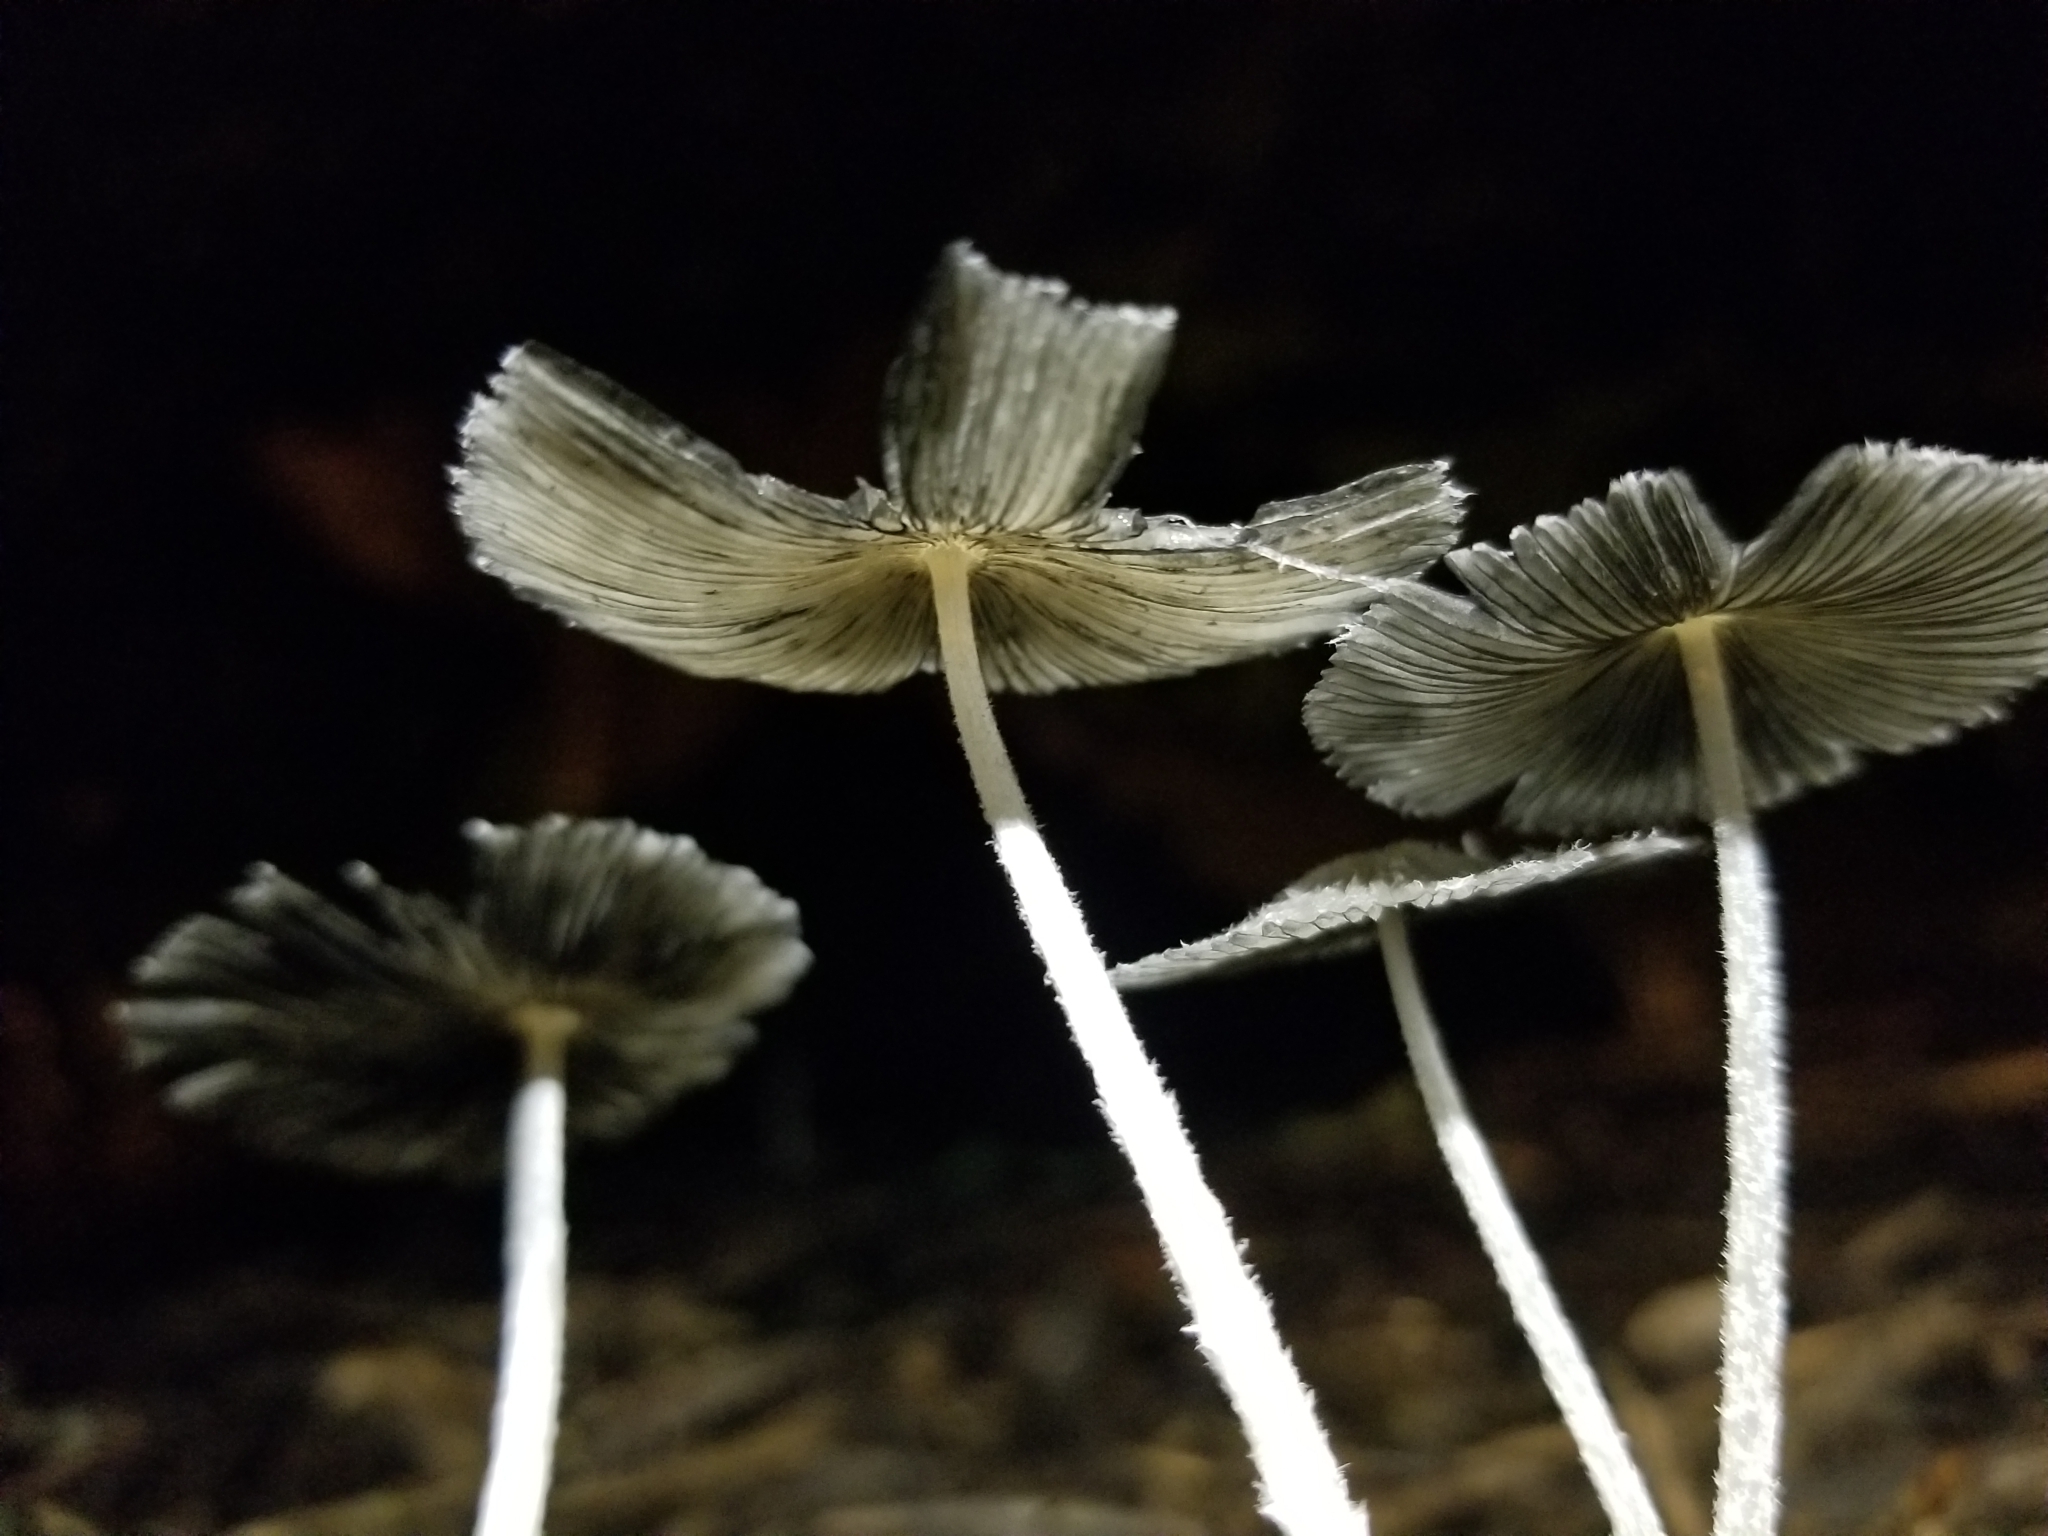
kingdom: Fungi
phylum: Basidiomycota
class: Agaricomycetes
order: Agaricales
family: Psathyrellaceae
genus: Coprinopsis
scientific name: Coprinopsis lagopus
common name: Hare'sfoot inkcap
